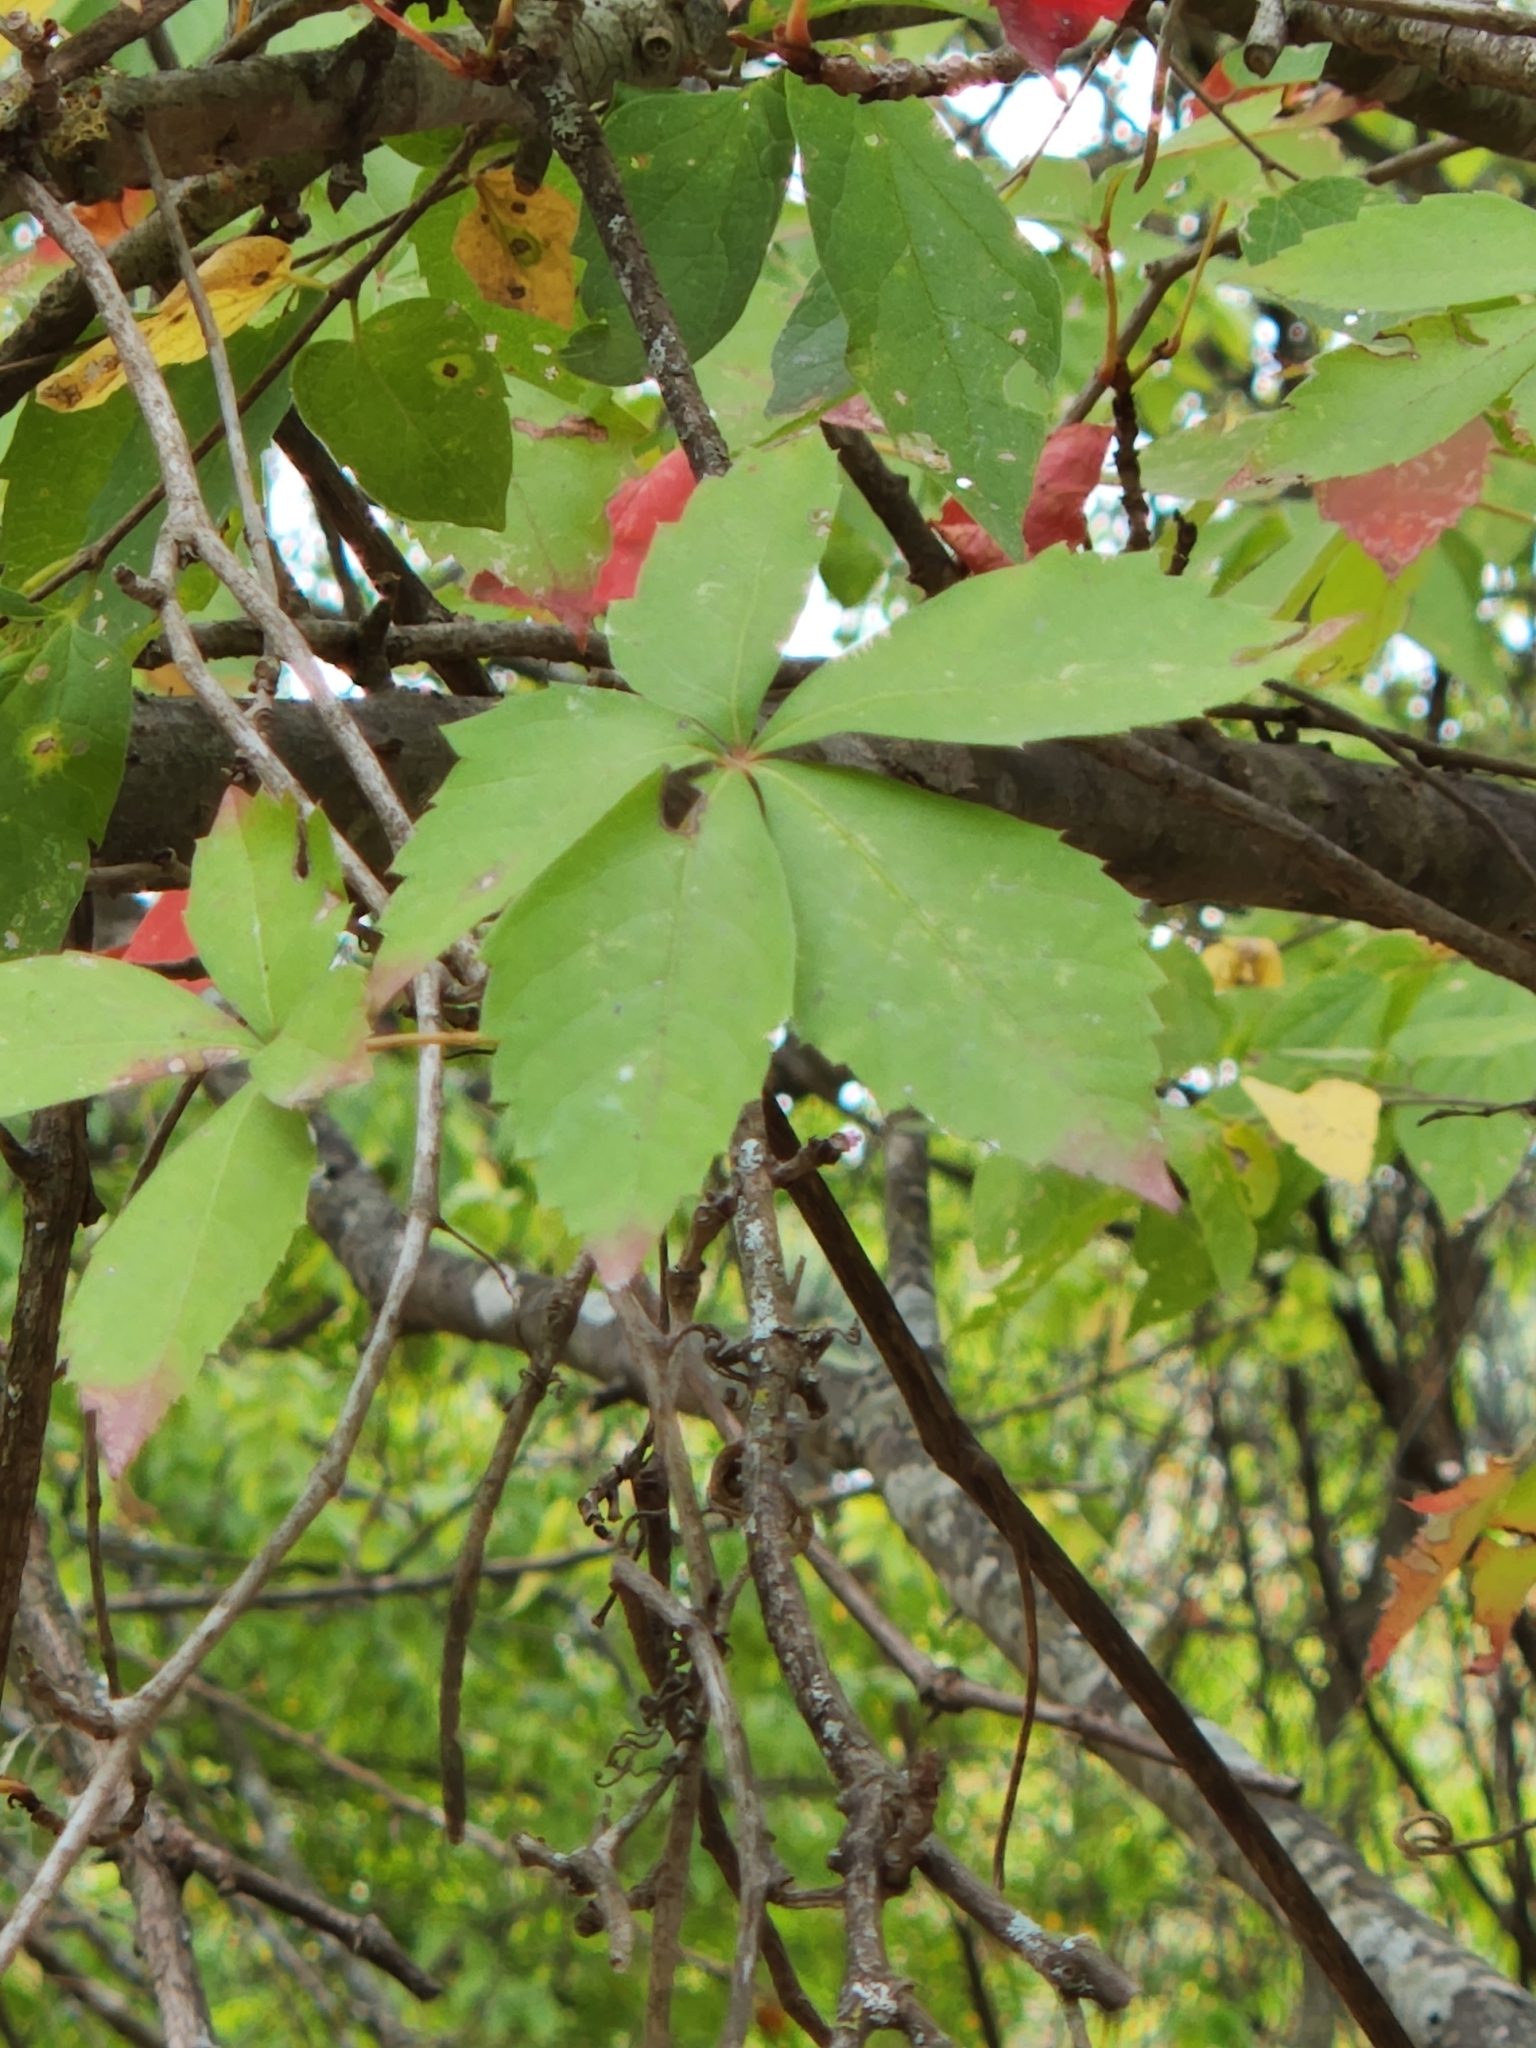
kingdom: Plantae
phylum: Tracheophyta
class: Magnoliopsida
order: Vitales
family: Vitaceae
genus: Parthenocissus
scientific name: Parthenocissus quinquefolia
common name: Virginia-creeper
